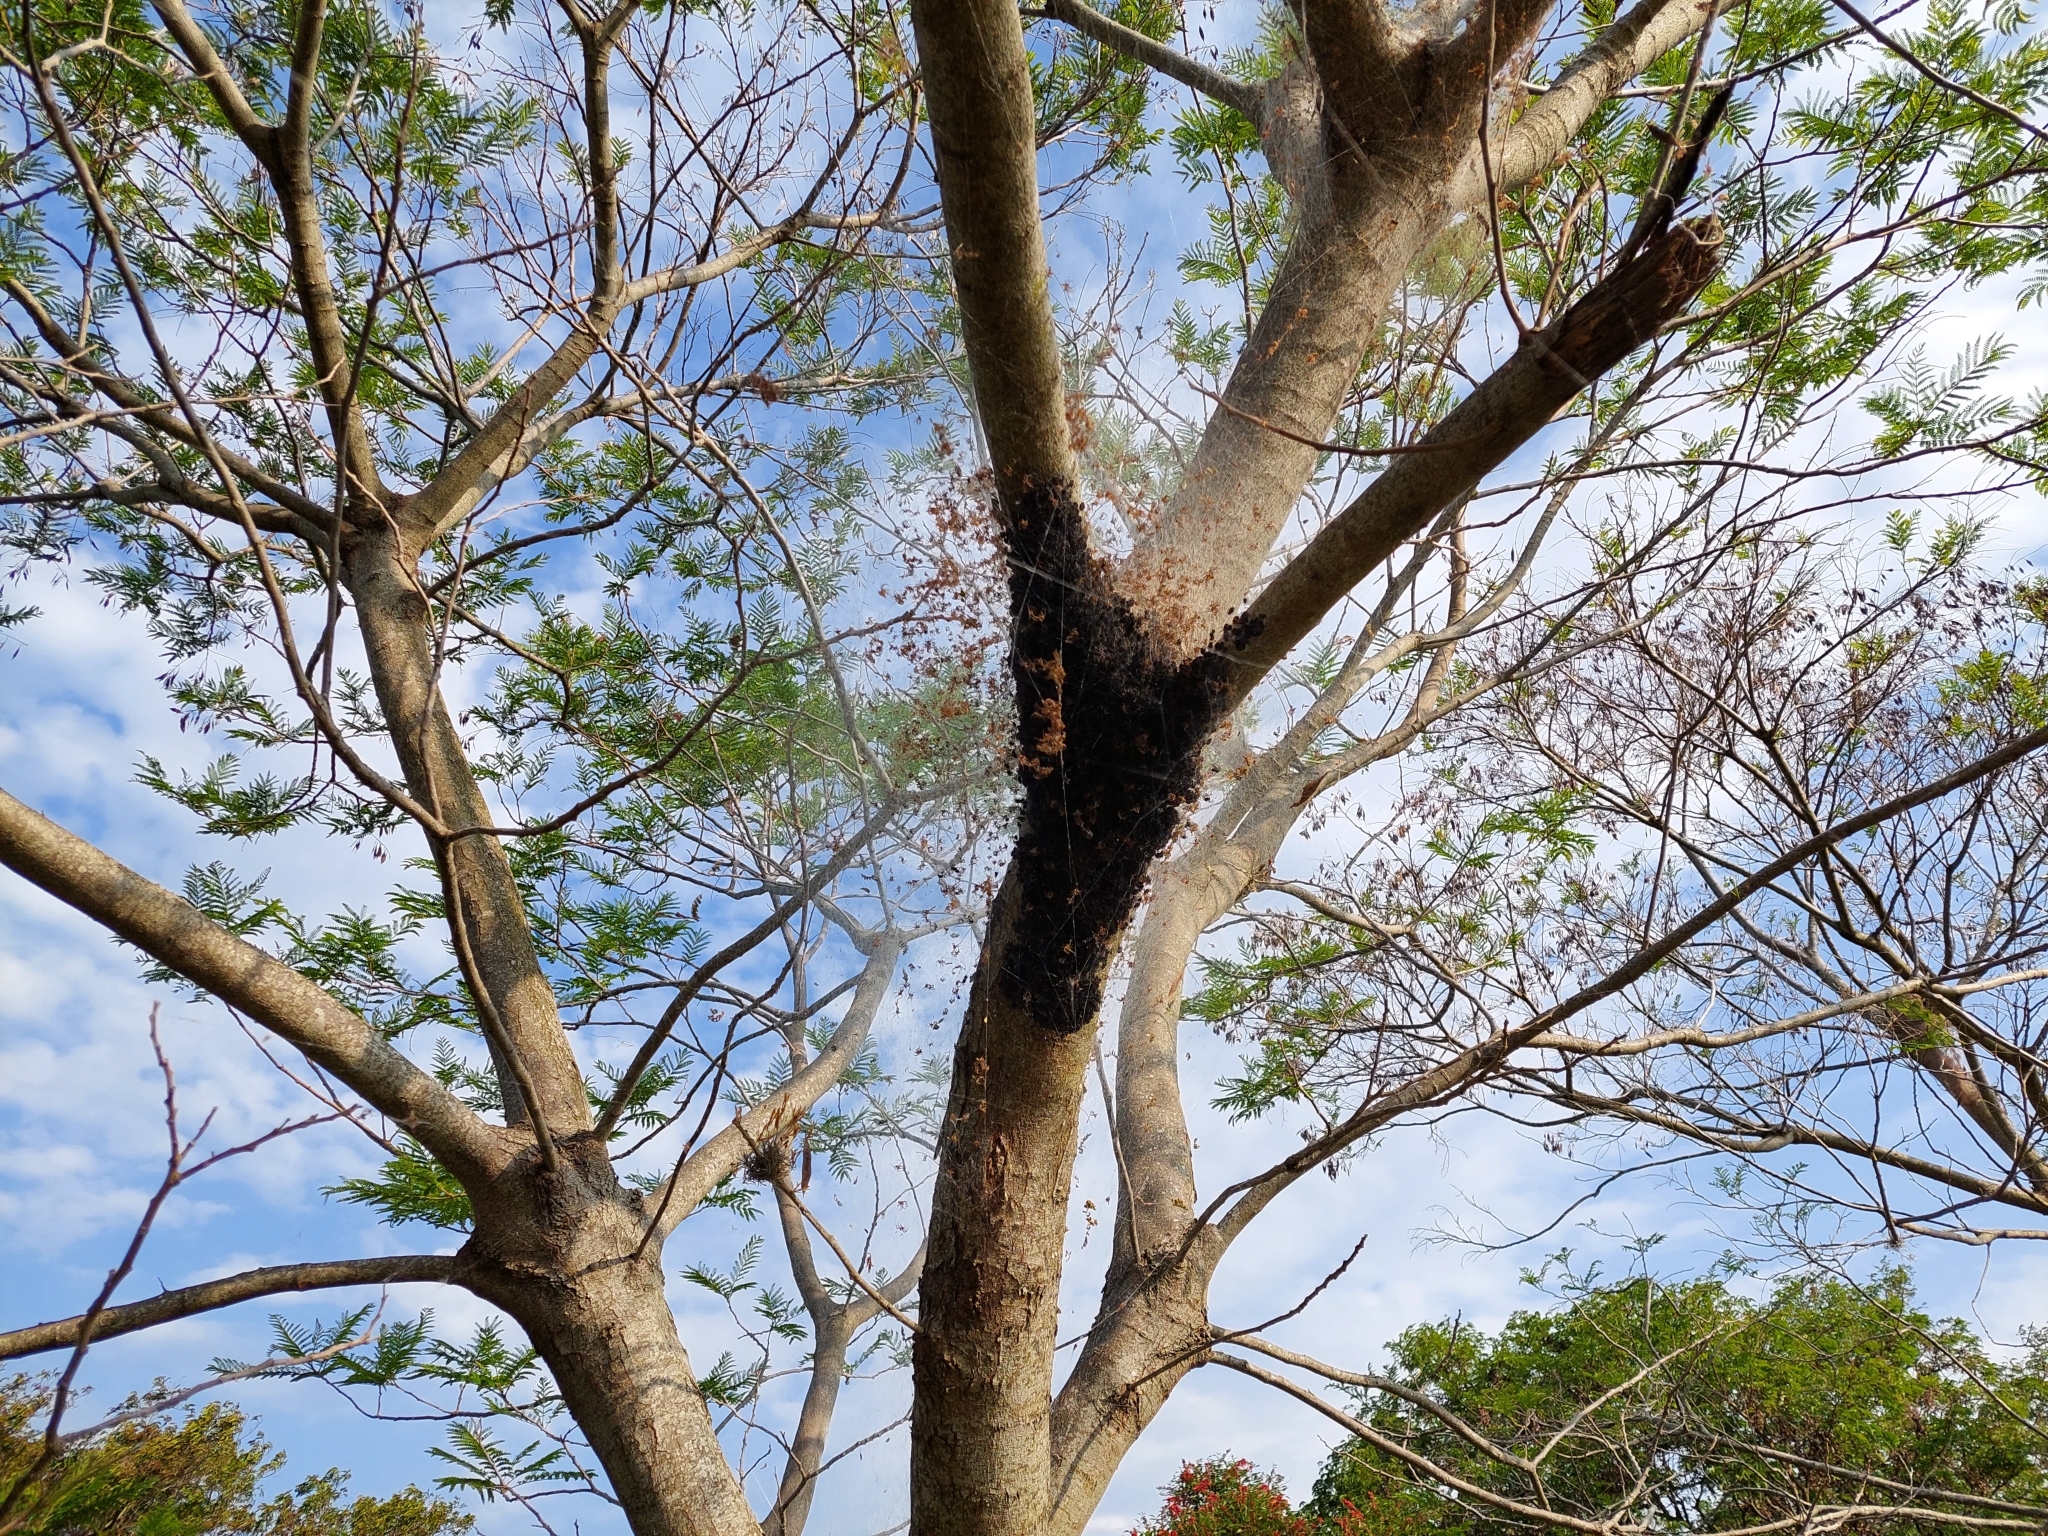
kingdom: Animalia
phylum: Arthropoda
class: Arachnida
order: Araneae
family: Araneidae
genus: Parawixia
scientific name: Parawixia bistriata
